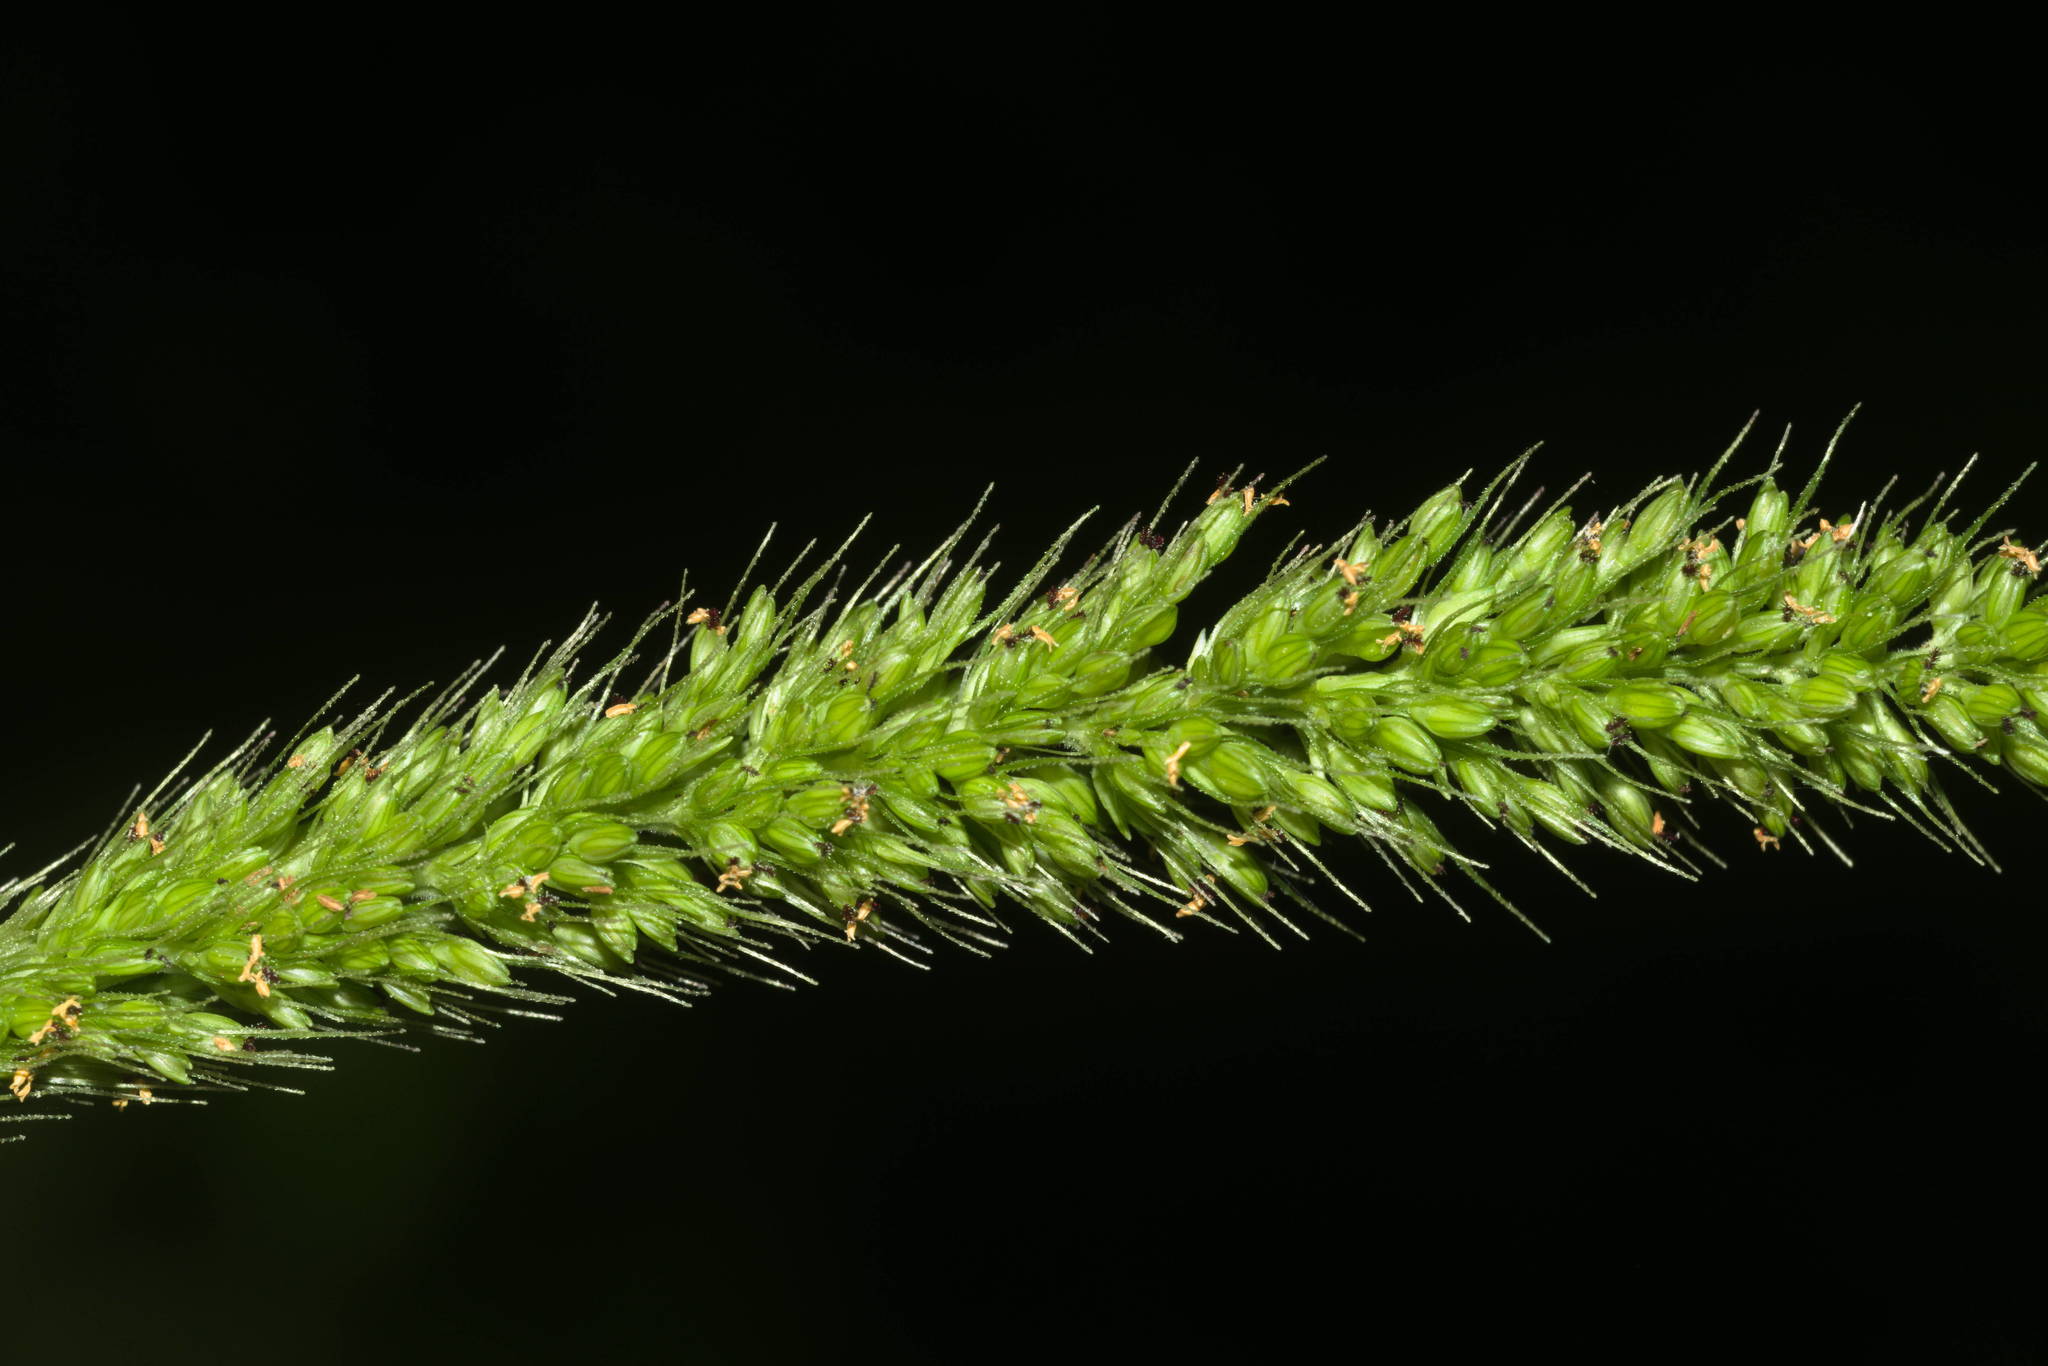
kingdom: Plantae
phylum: Tracheophyta
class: Liliopsida
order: Poales
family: Poaceae
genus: Setaria
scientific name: Setaria adhaerens
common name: Adherent bristle-grass
